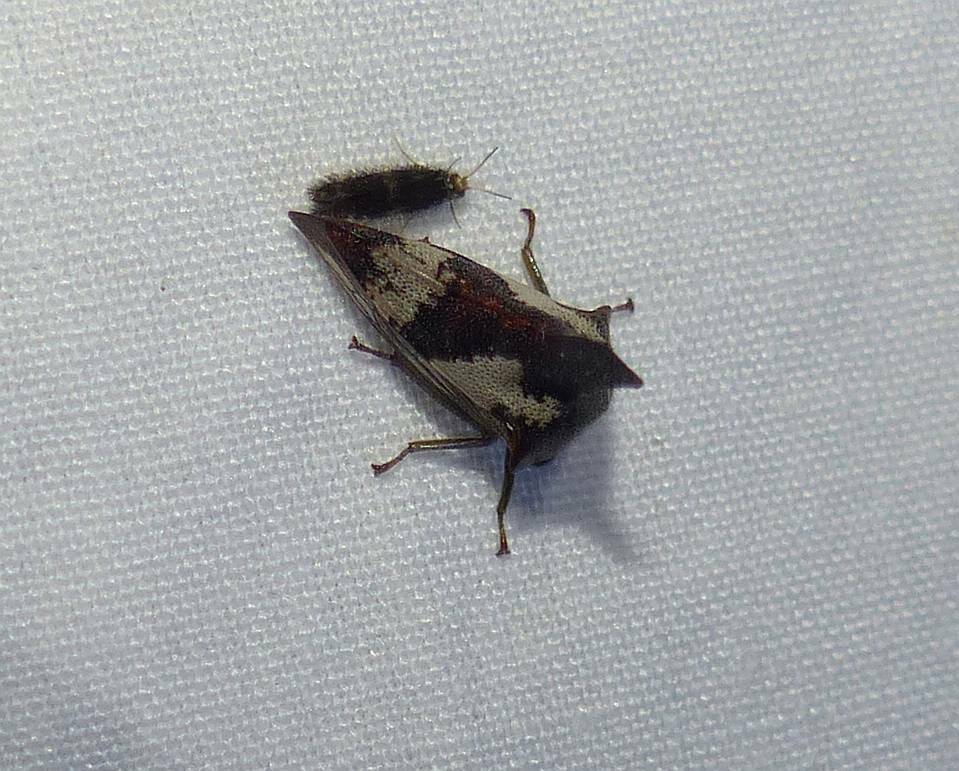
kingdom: Animalia
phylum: Arthropoda
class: Insecta
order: Hemiptera
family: Membracidae
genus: Glossonotus
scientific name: Glossonotus crataegi
